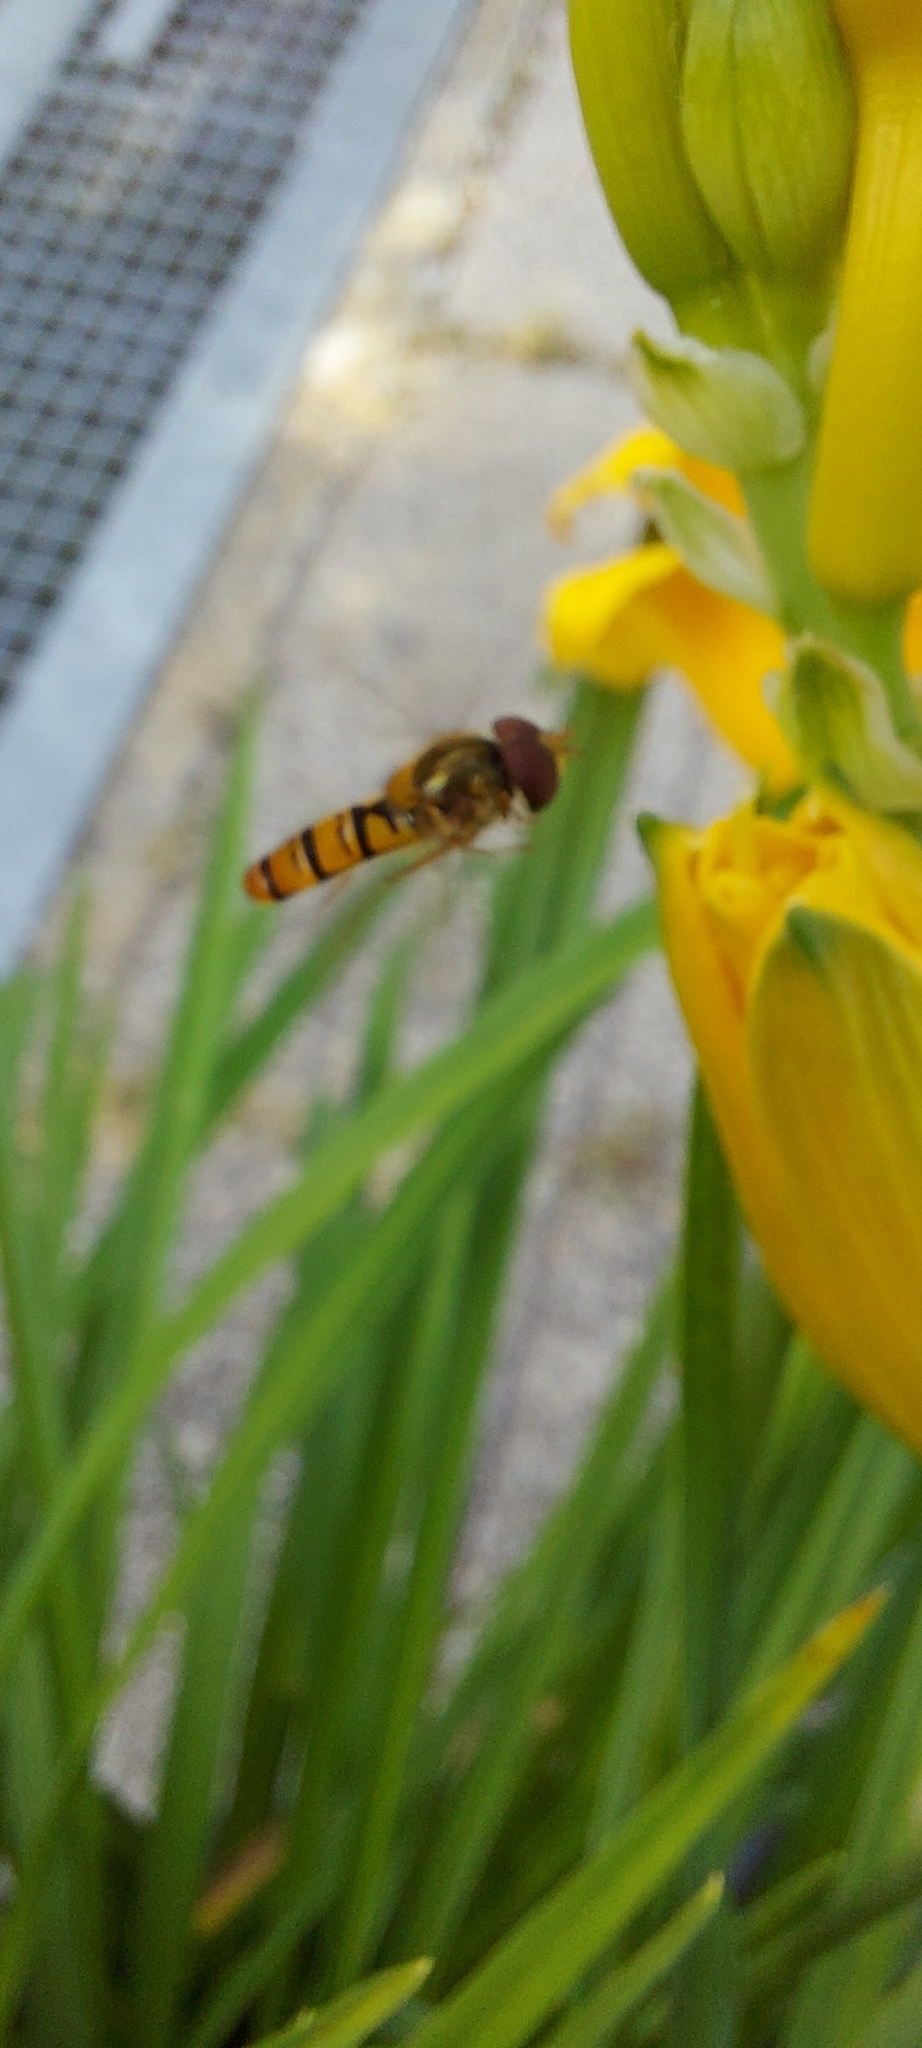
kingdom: Animalia
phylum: Arthropoda
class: Insecta
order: Diptera
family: Syrphidae
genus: Episyrphus
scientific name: Episyrphus balteatus
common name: Marmalade hoverfly
